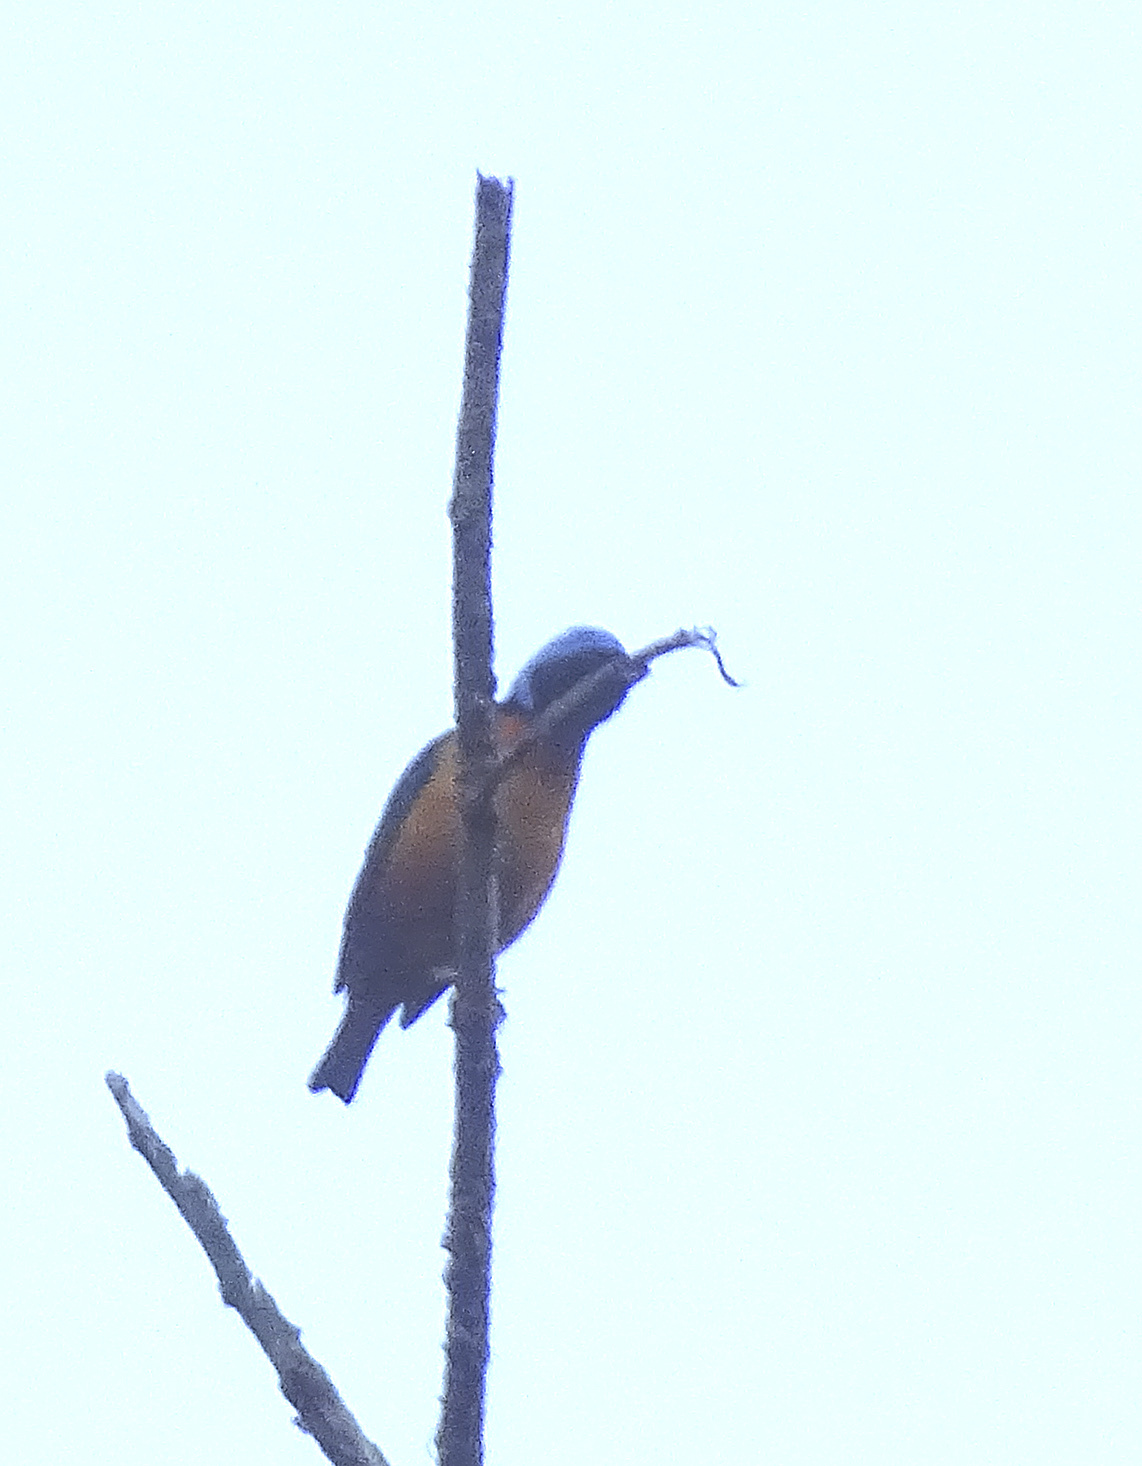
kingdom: Animalia
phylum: Chordata
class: Aves
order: Passeriformes
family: Fringillidae
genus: Euphonia
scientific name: Euphonia elegantissima
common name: Elegant euphonia
